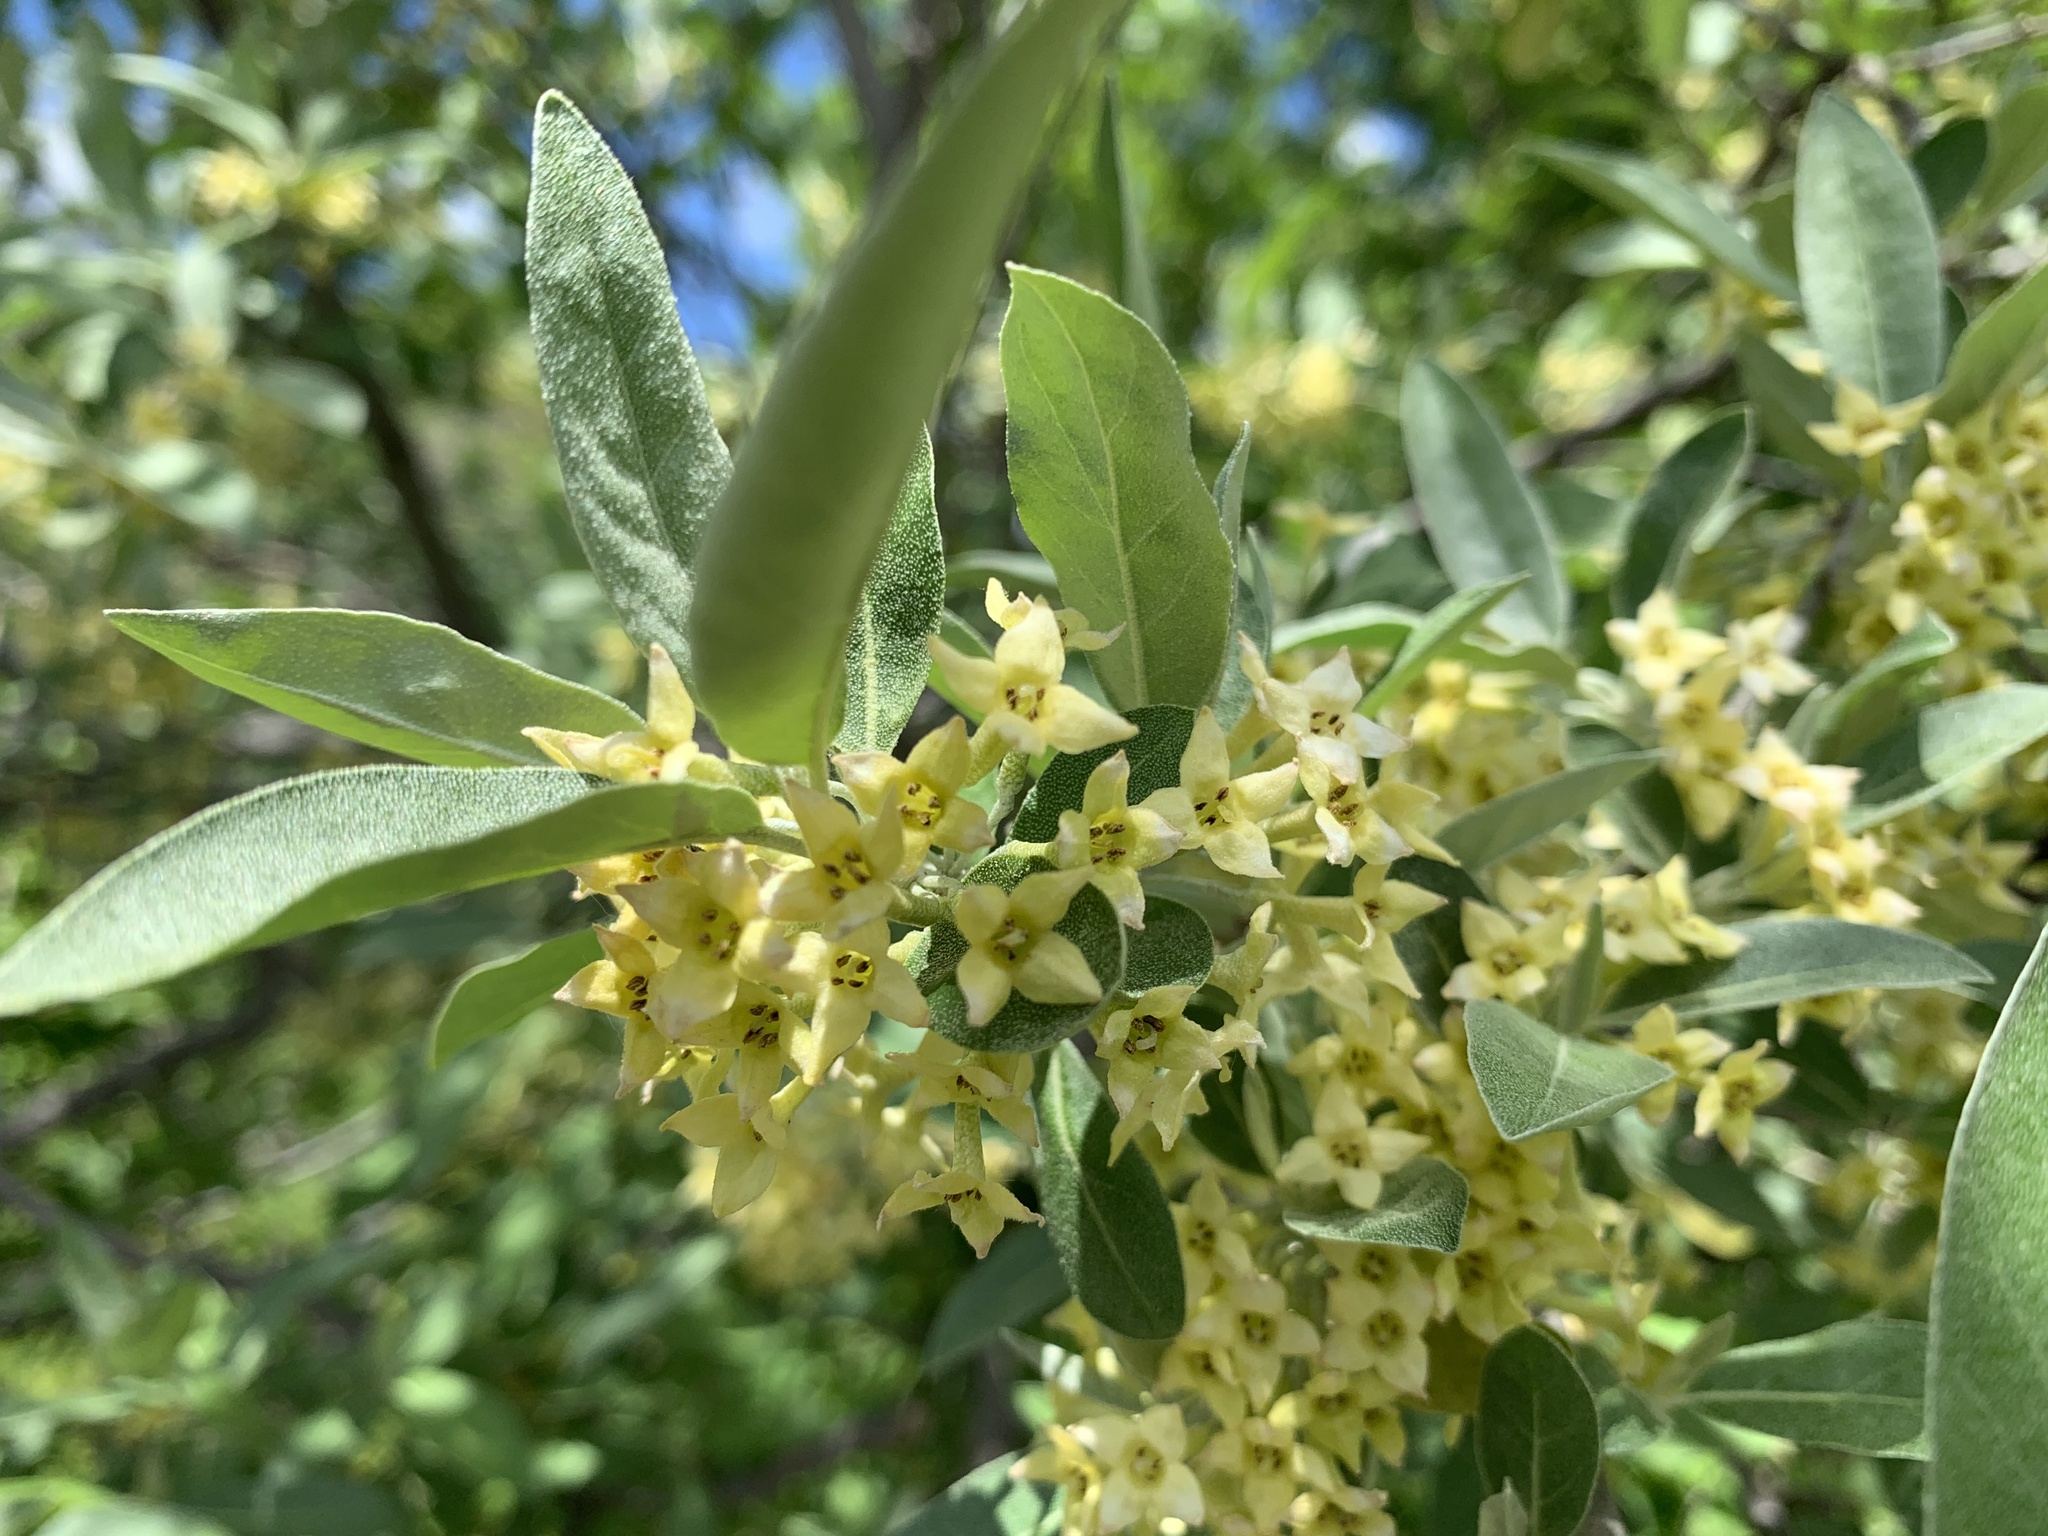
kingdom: Plantae
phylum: Tracheophyta
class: Magnoliopsida
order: Rosales
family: Elaeagnaceae
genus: Elaeagnus
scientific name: Elaeagnus umbellata
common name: Autumn olive
